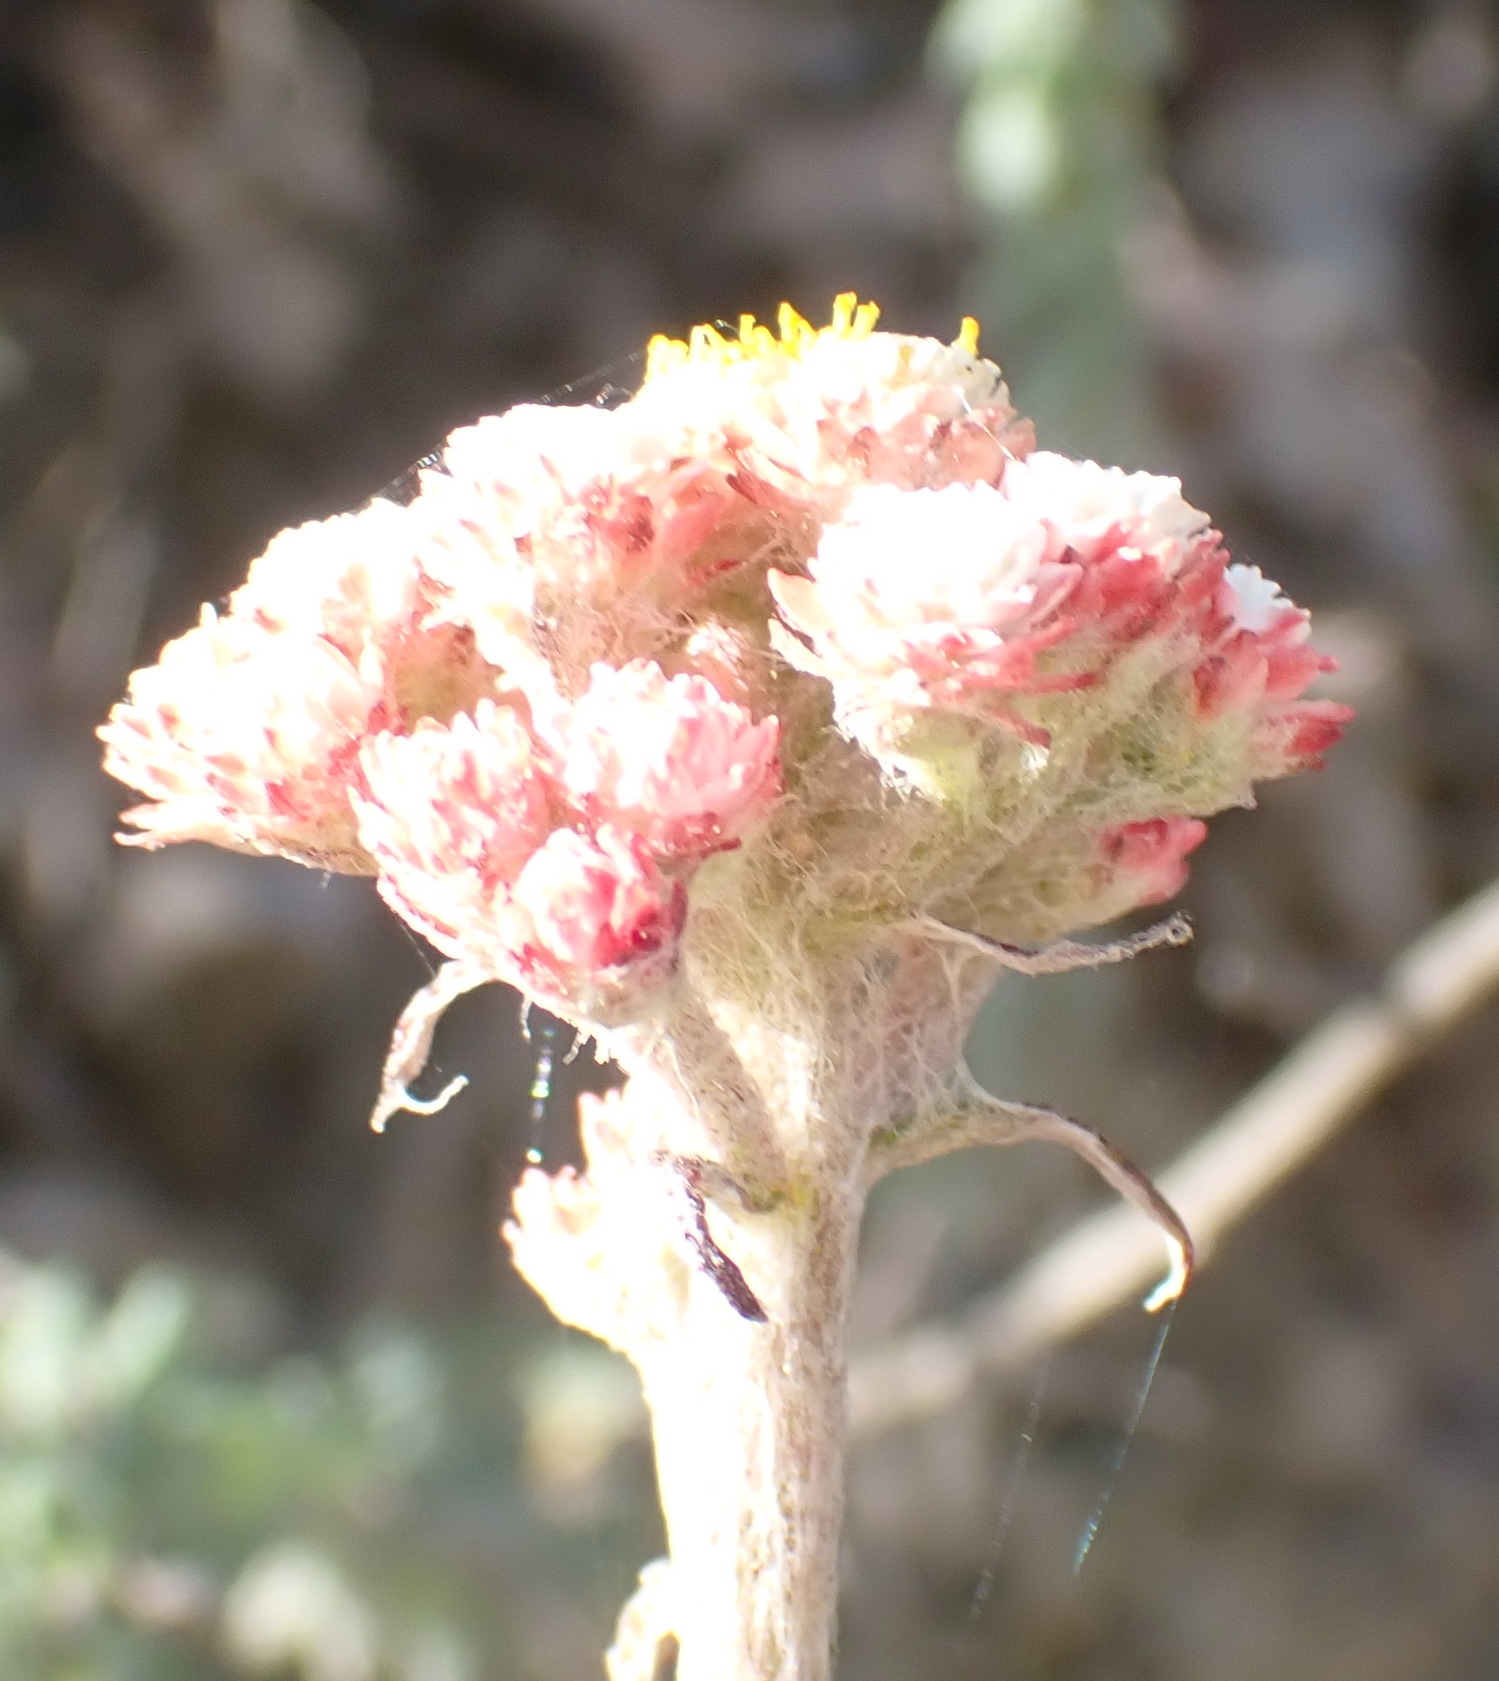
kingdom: Plantae
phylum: Tracheophyta
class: Magnoliopsida
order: Asterales
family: Asteraceae
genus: Helichrysum
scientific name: Helichrysum felinum
